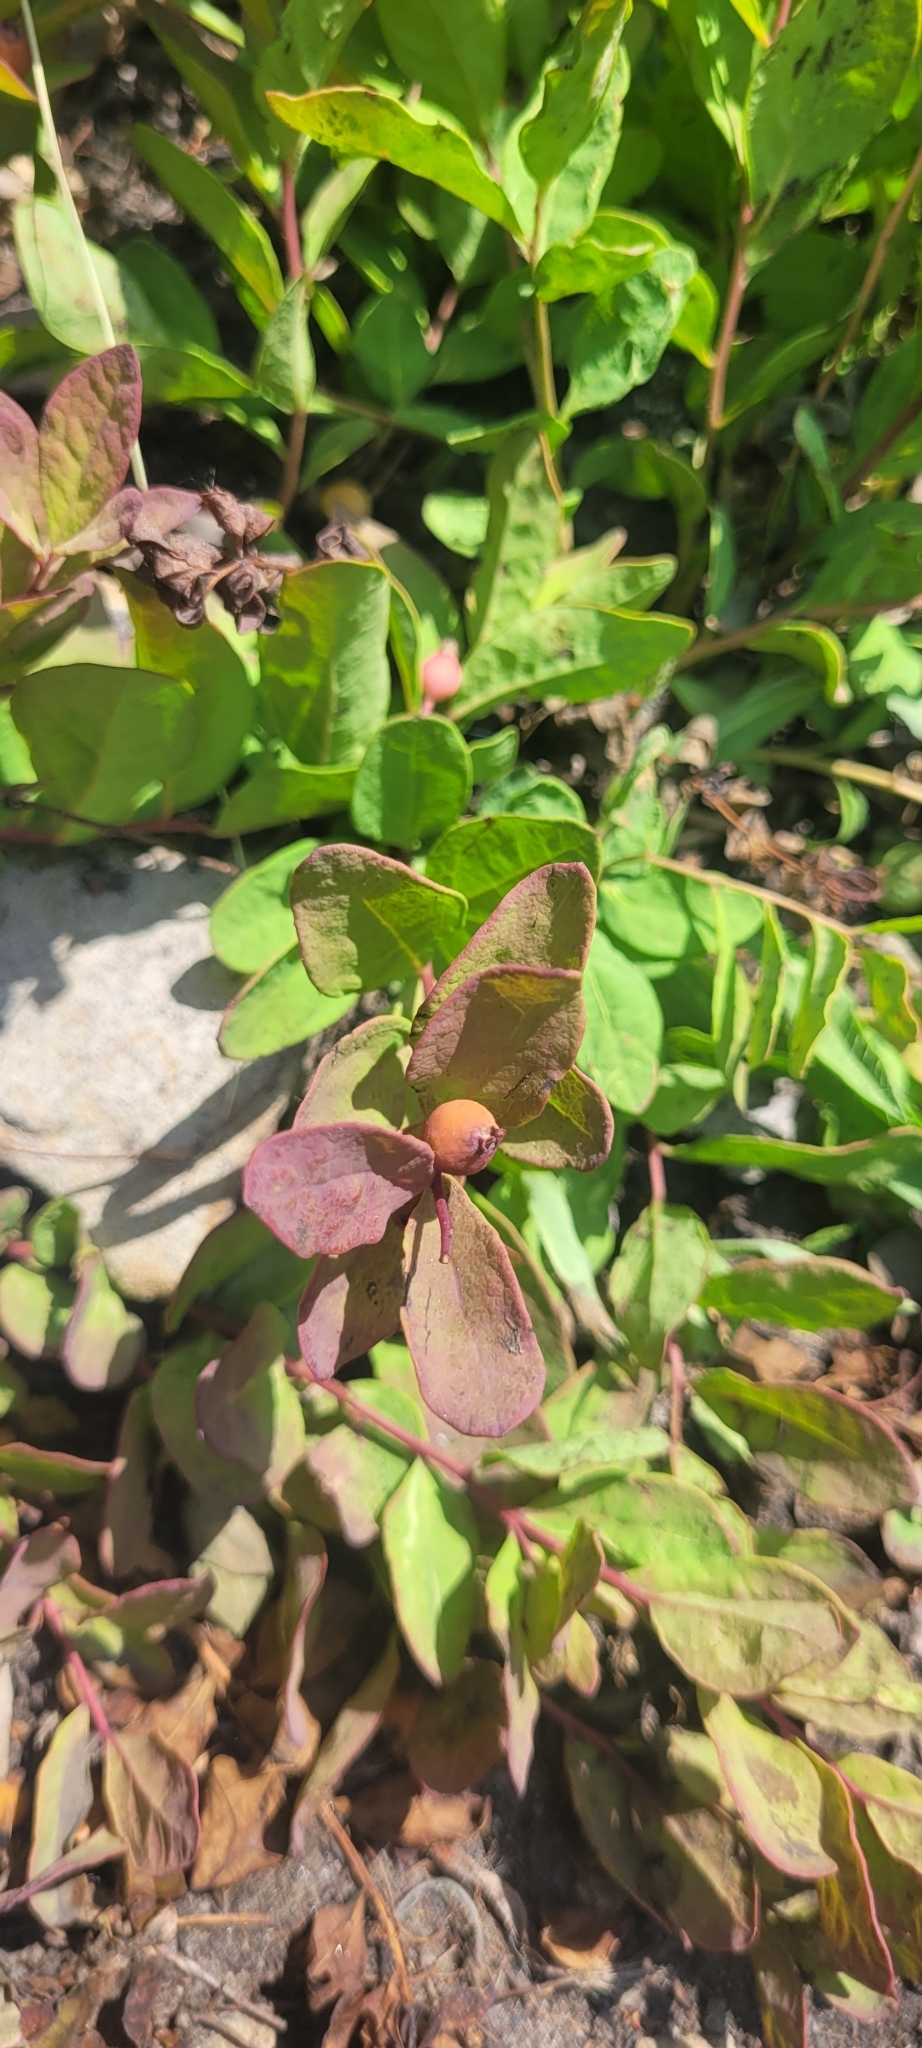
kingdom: Plantae
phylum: Tracheophyta
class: Magnoliopsida
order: Santalales
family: Comandraceae
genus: Geocaulon
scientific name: Geocaulon lividum
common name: Earthberry
